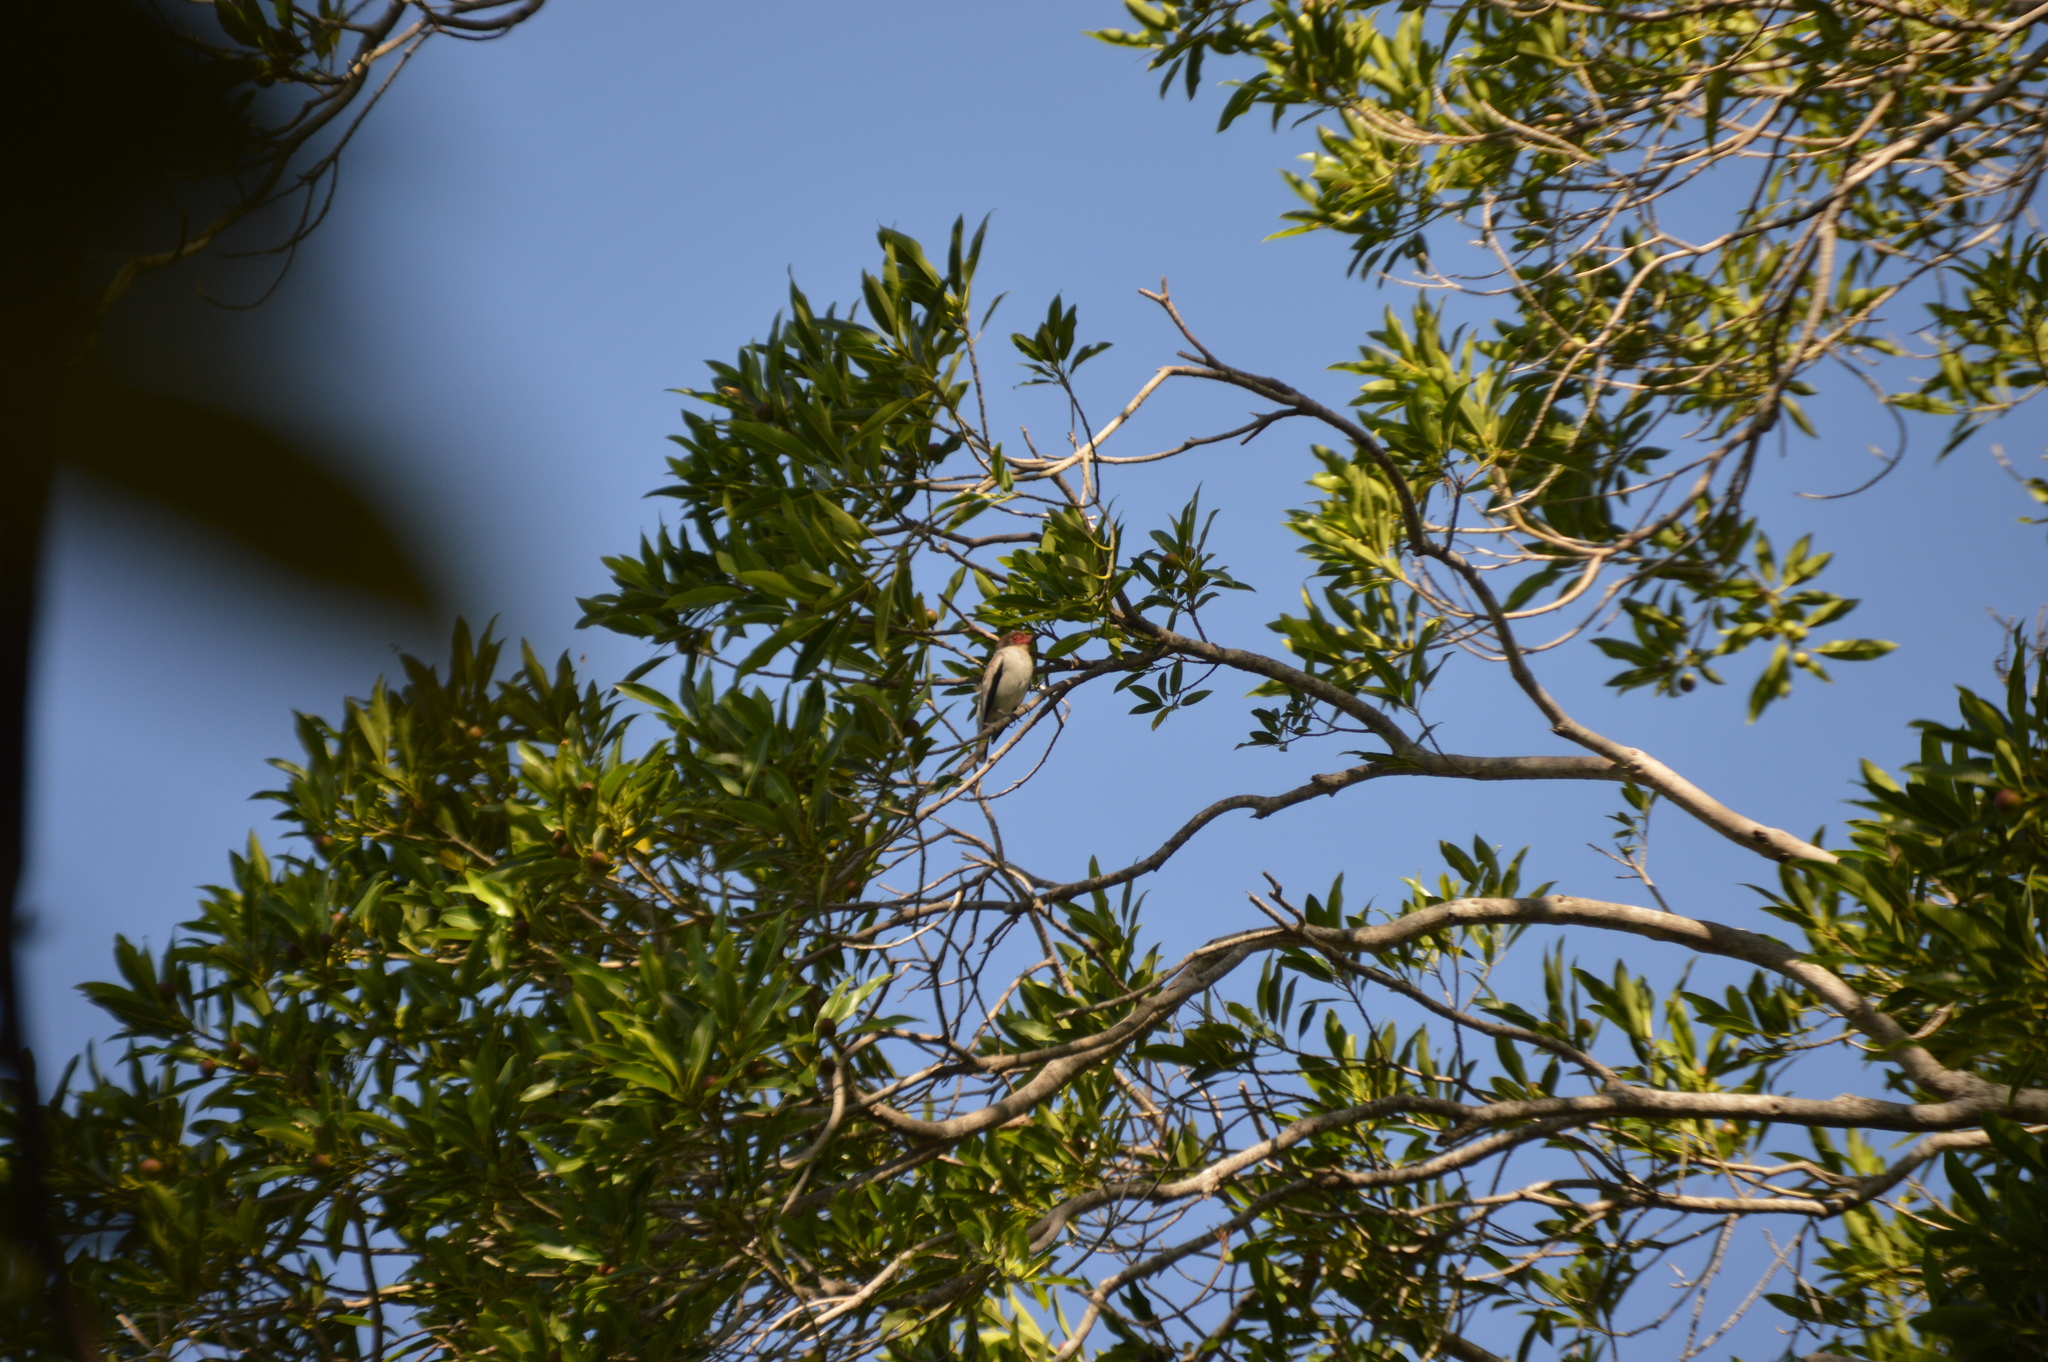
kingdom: Animalia
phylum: Chordata
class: Aves
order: Passeriformes
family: Cotingidae
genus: Tityra
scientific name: Tityra semifasciata
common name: Masked tityra
